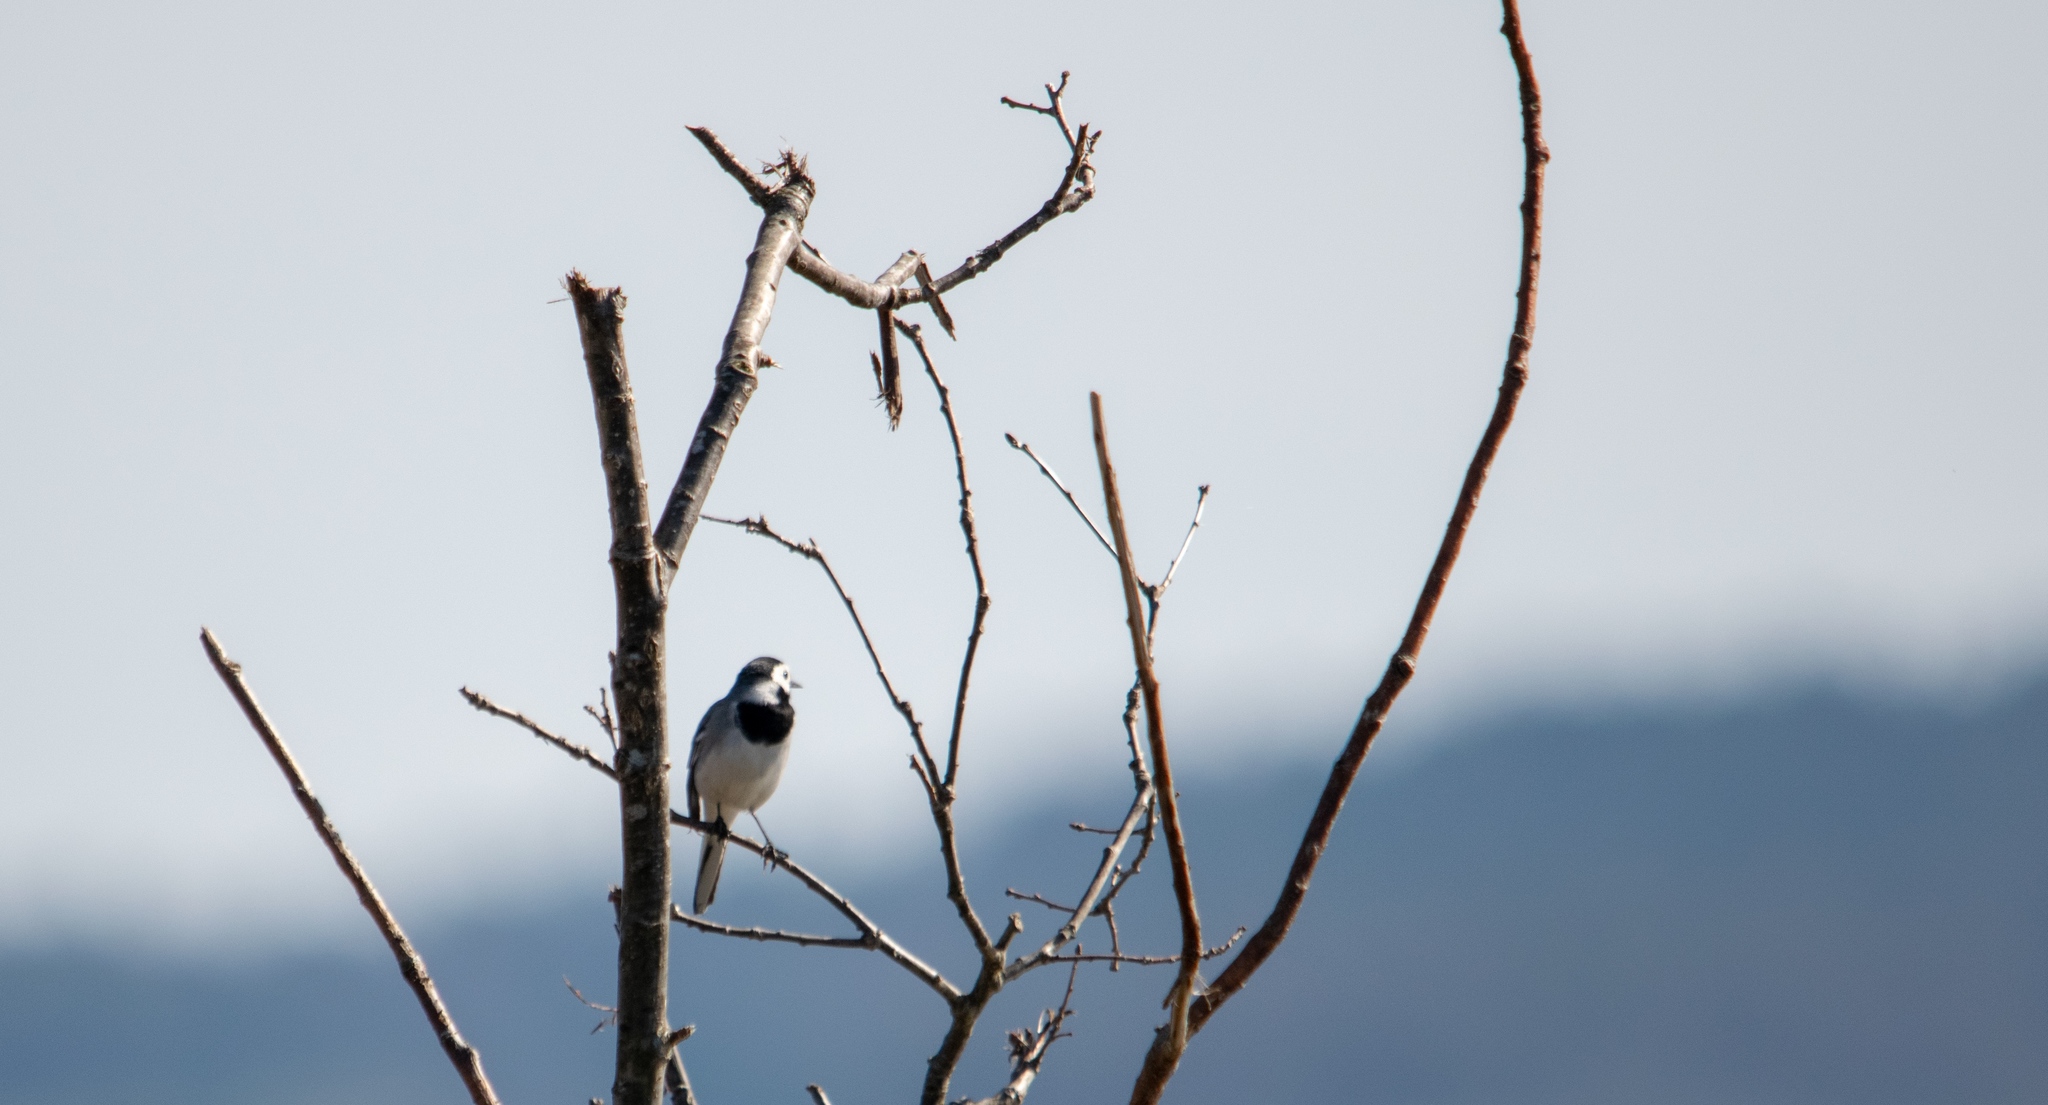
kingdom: Animalia
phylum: Chordata
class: Aves
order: Passeriformes
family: Motacillidae
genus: Motacilla
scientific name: Motacilla alba
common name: White wagtail
